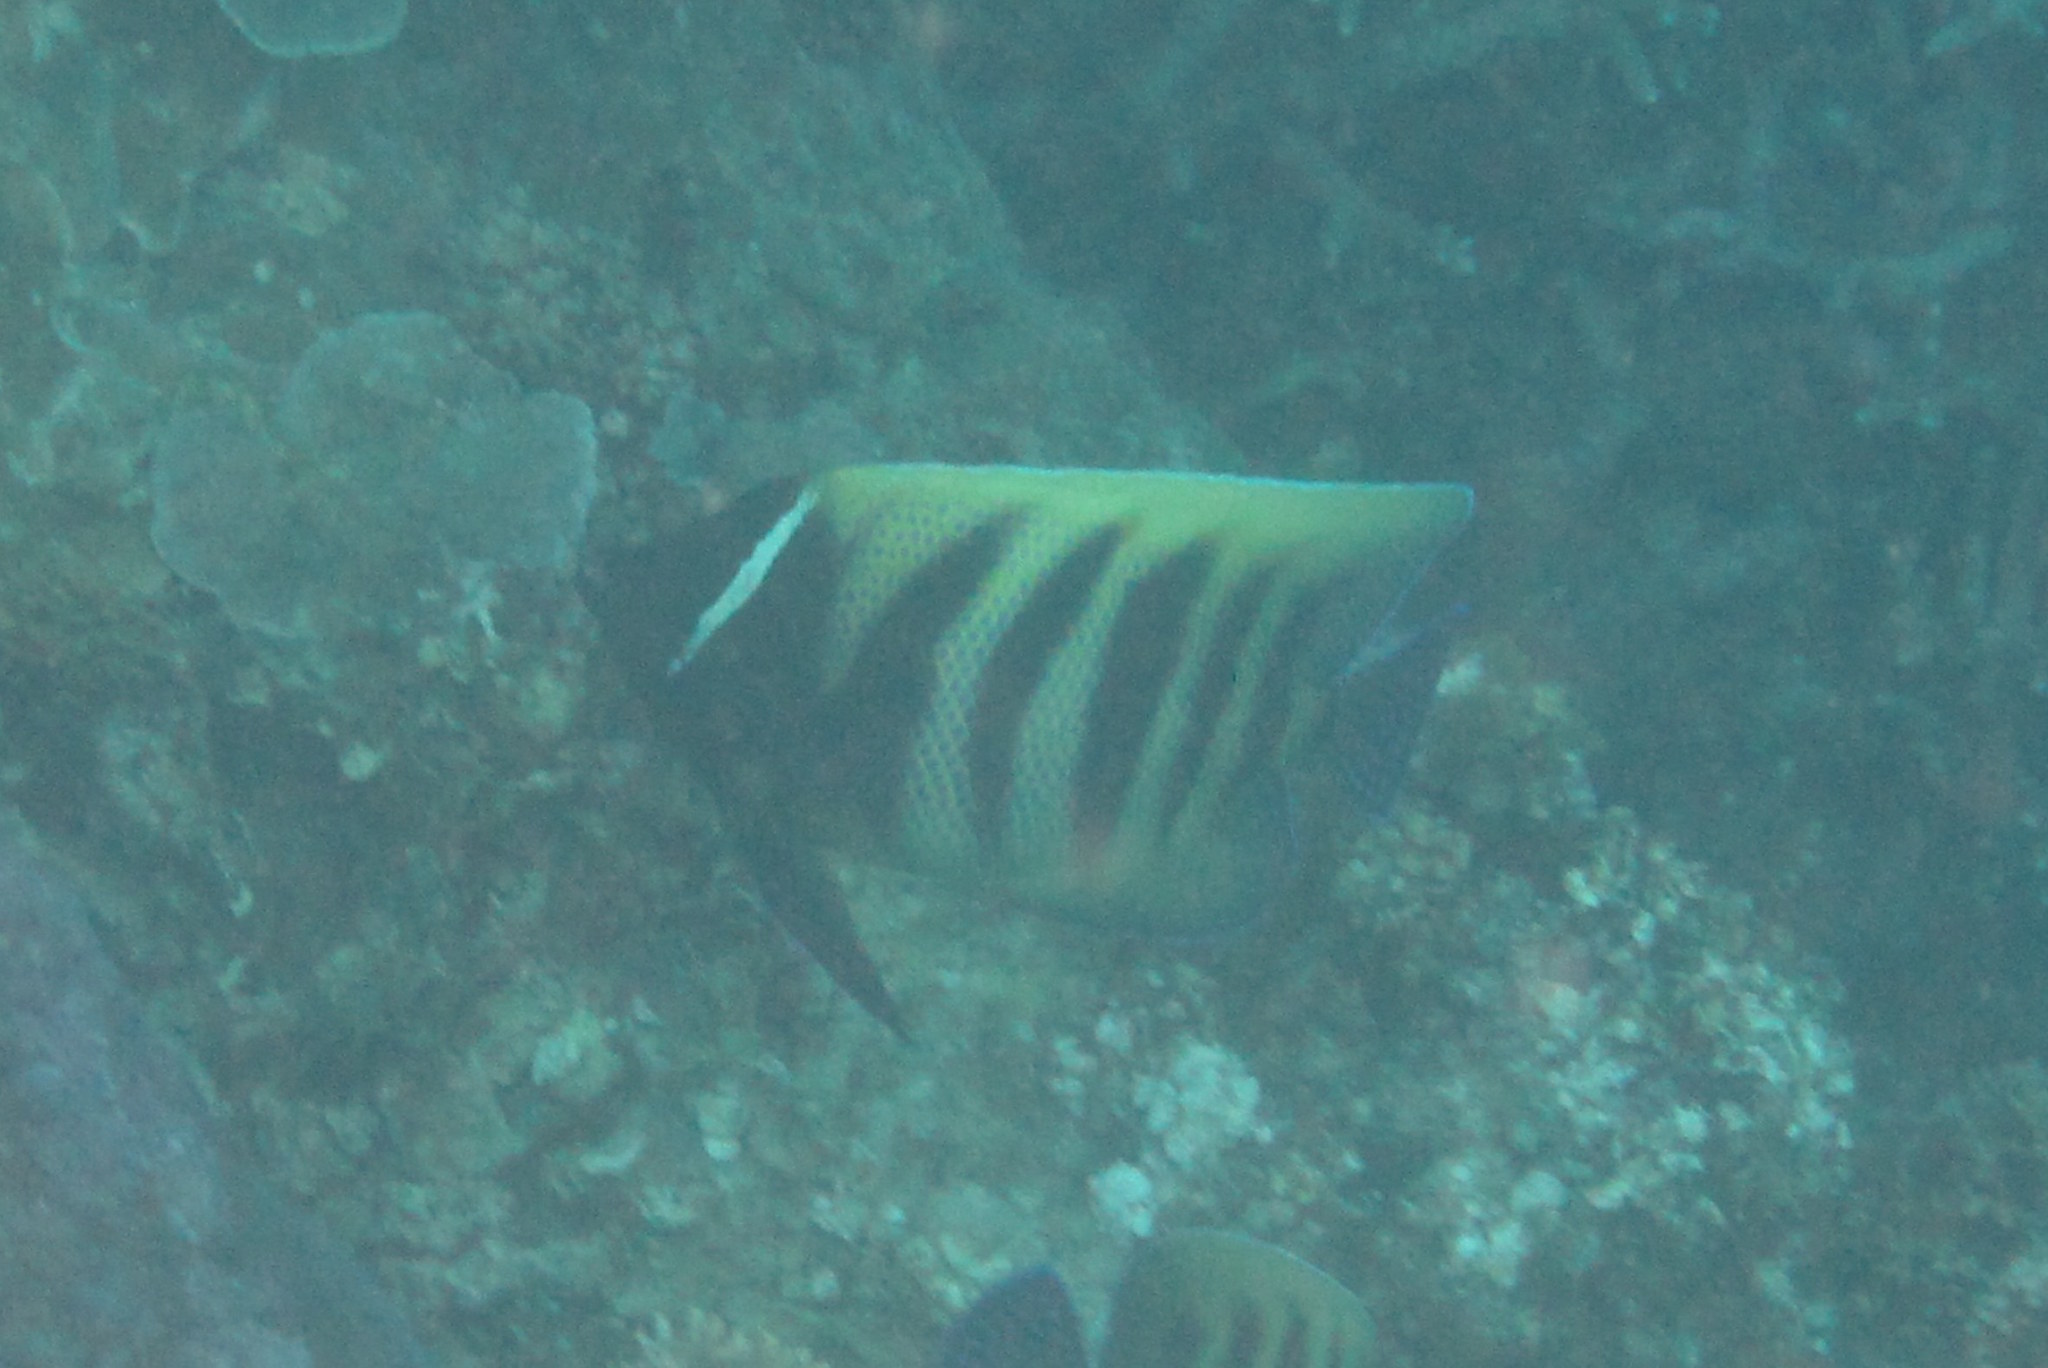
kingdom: Animalia
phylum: Chordata
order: Perciformes
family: Pomacanthidae
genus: Pomacanthus
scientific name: Pomacanthus sexstriatus
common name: Six-banded angelfish
